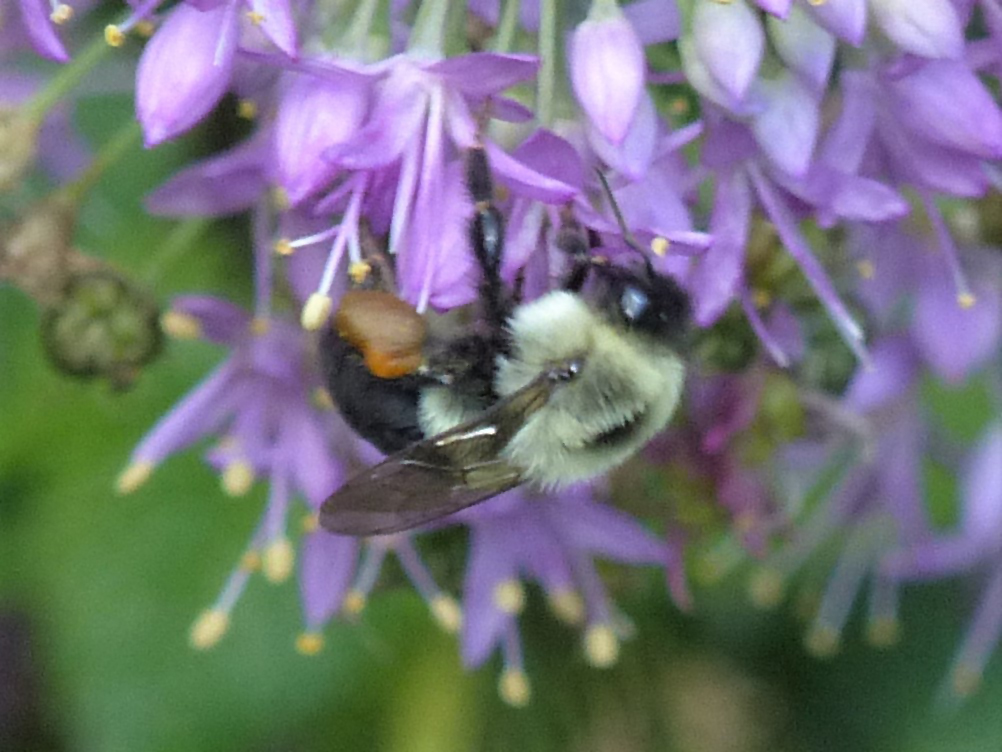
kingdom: Animalia
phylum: Arthropoda
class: Insecta
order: Hymenoptera
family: Apidae
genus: Bombus
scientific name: Bombus impatiens
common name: Common eastern bumble bee
